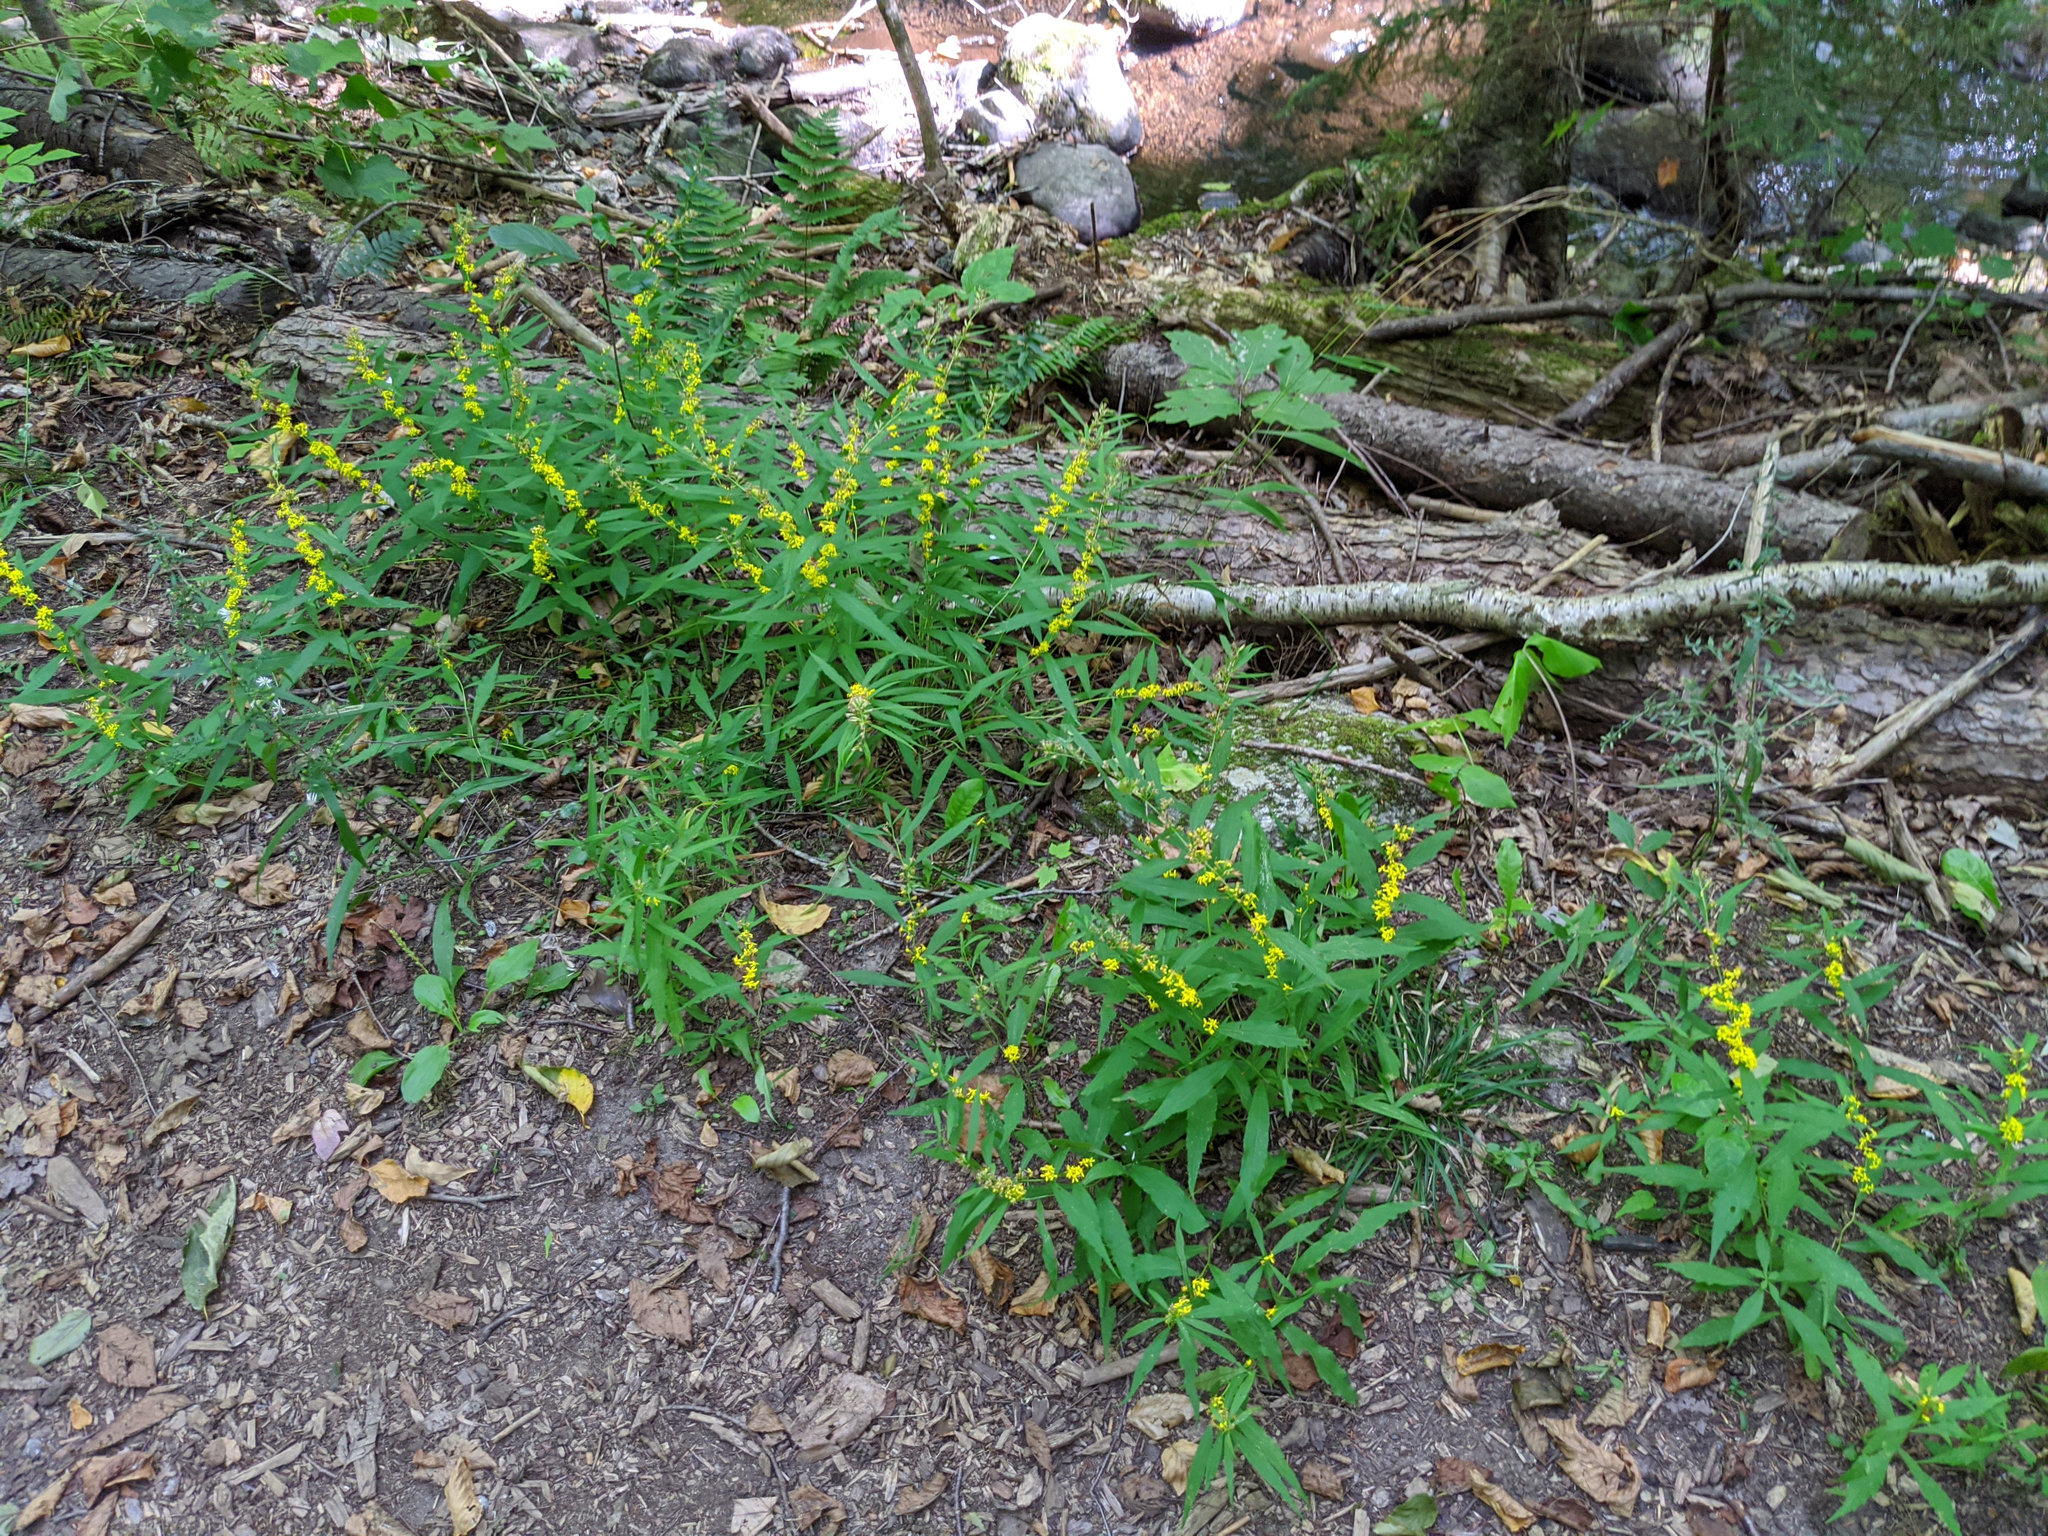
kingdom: Plantae
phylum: Tracheophyta
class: Magnoliopsida
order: Asterales
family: Asteraceae
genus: Solidago
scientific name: Solidago caesia
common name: Woodland goldenrod
